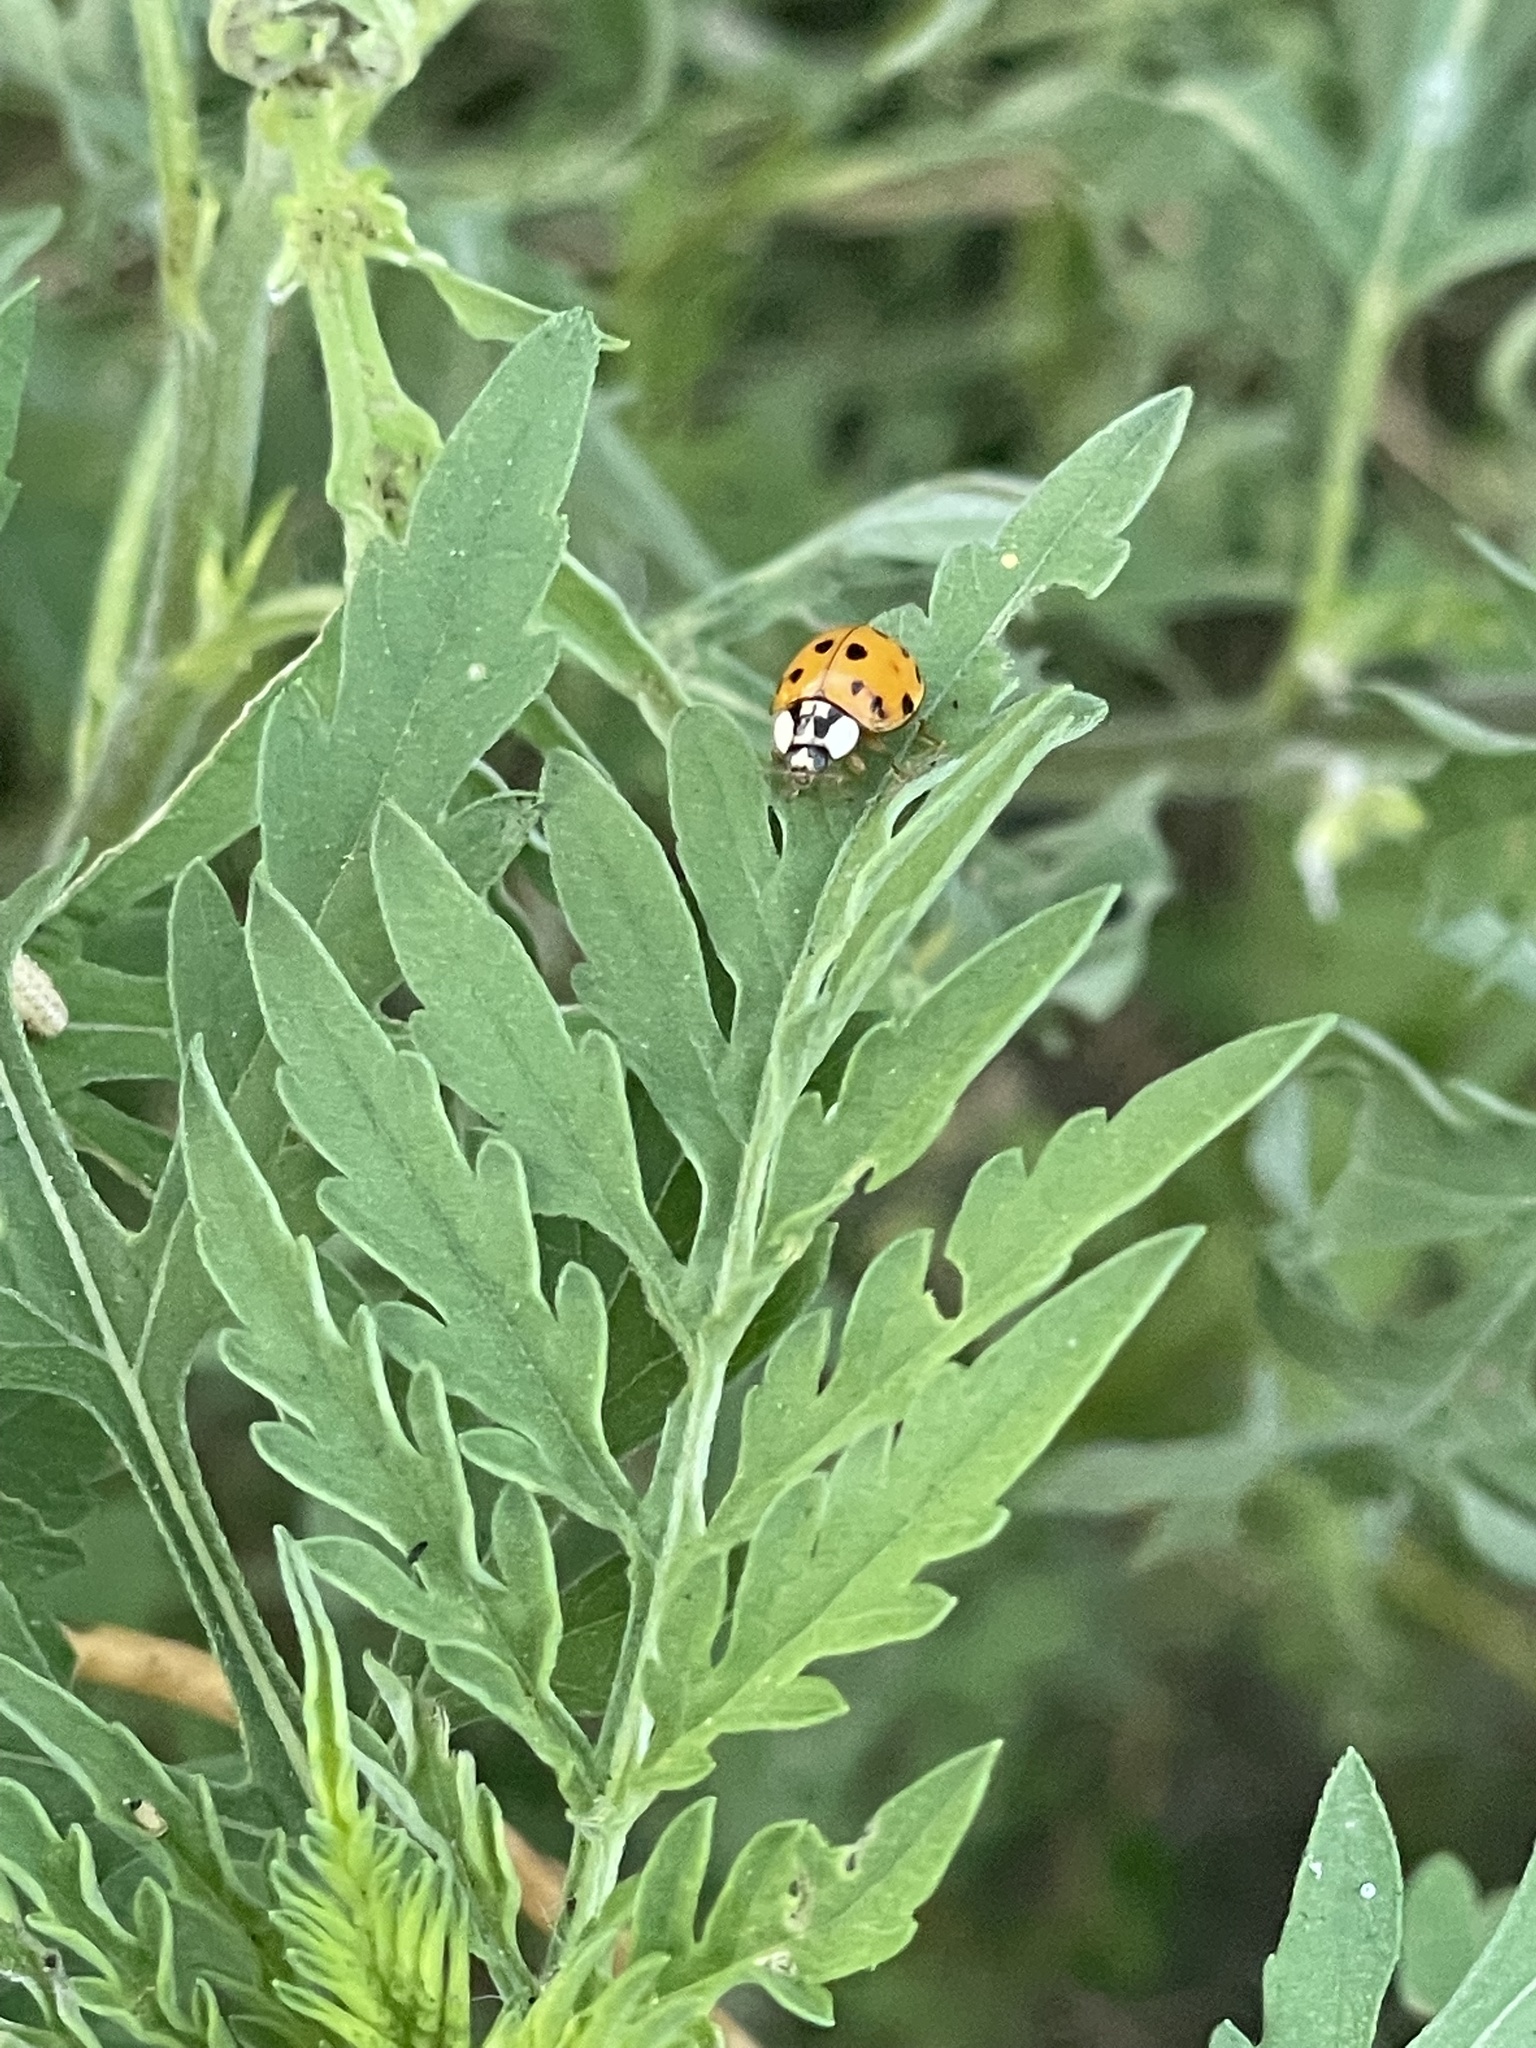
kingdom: Animalia
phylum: Arthropoda
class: Insecta
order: Coleoptera
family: Coccinellidae
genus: Harmonia
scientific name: Harmonia axyridis
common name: Harlequin ladybird
